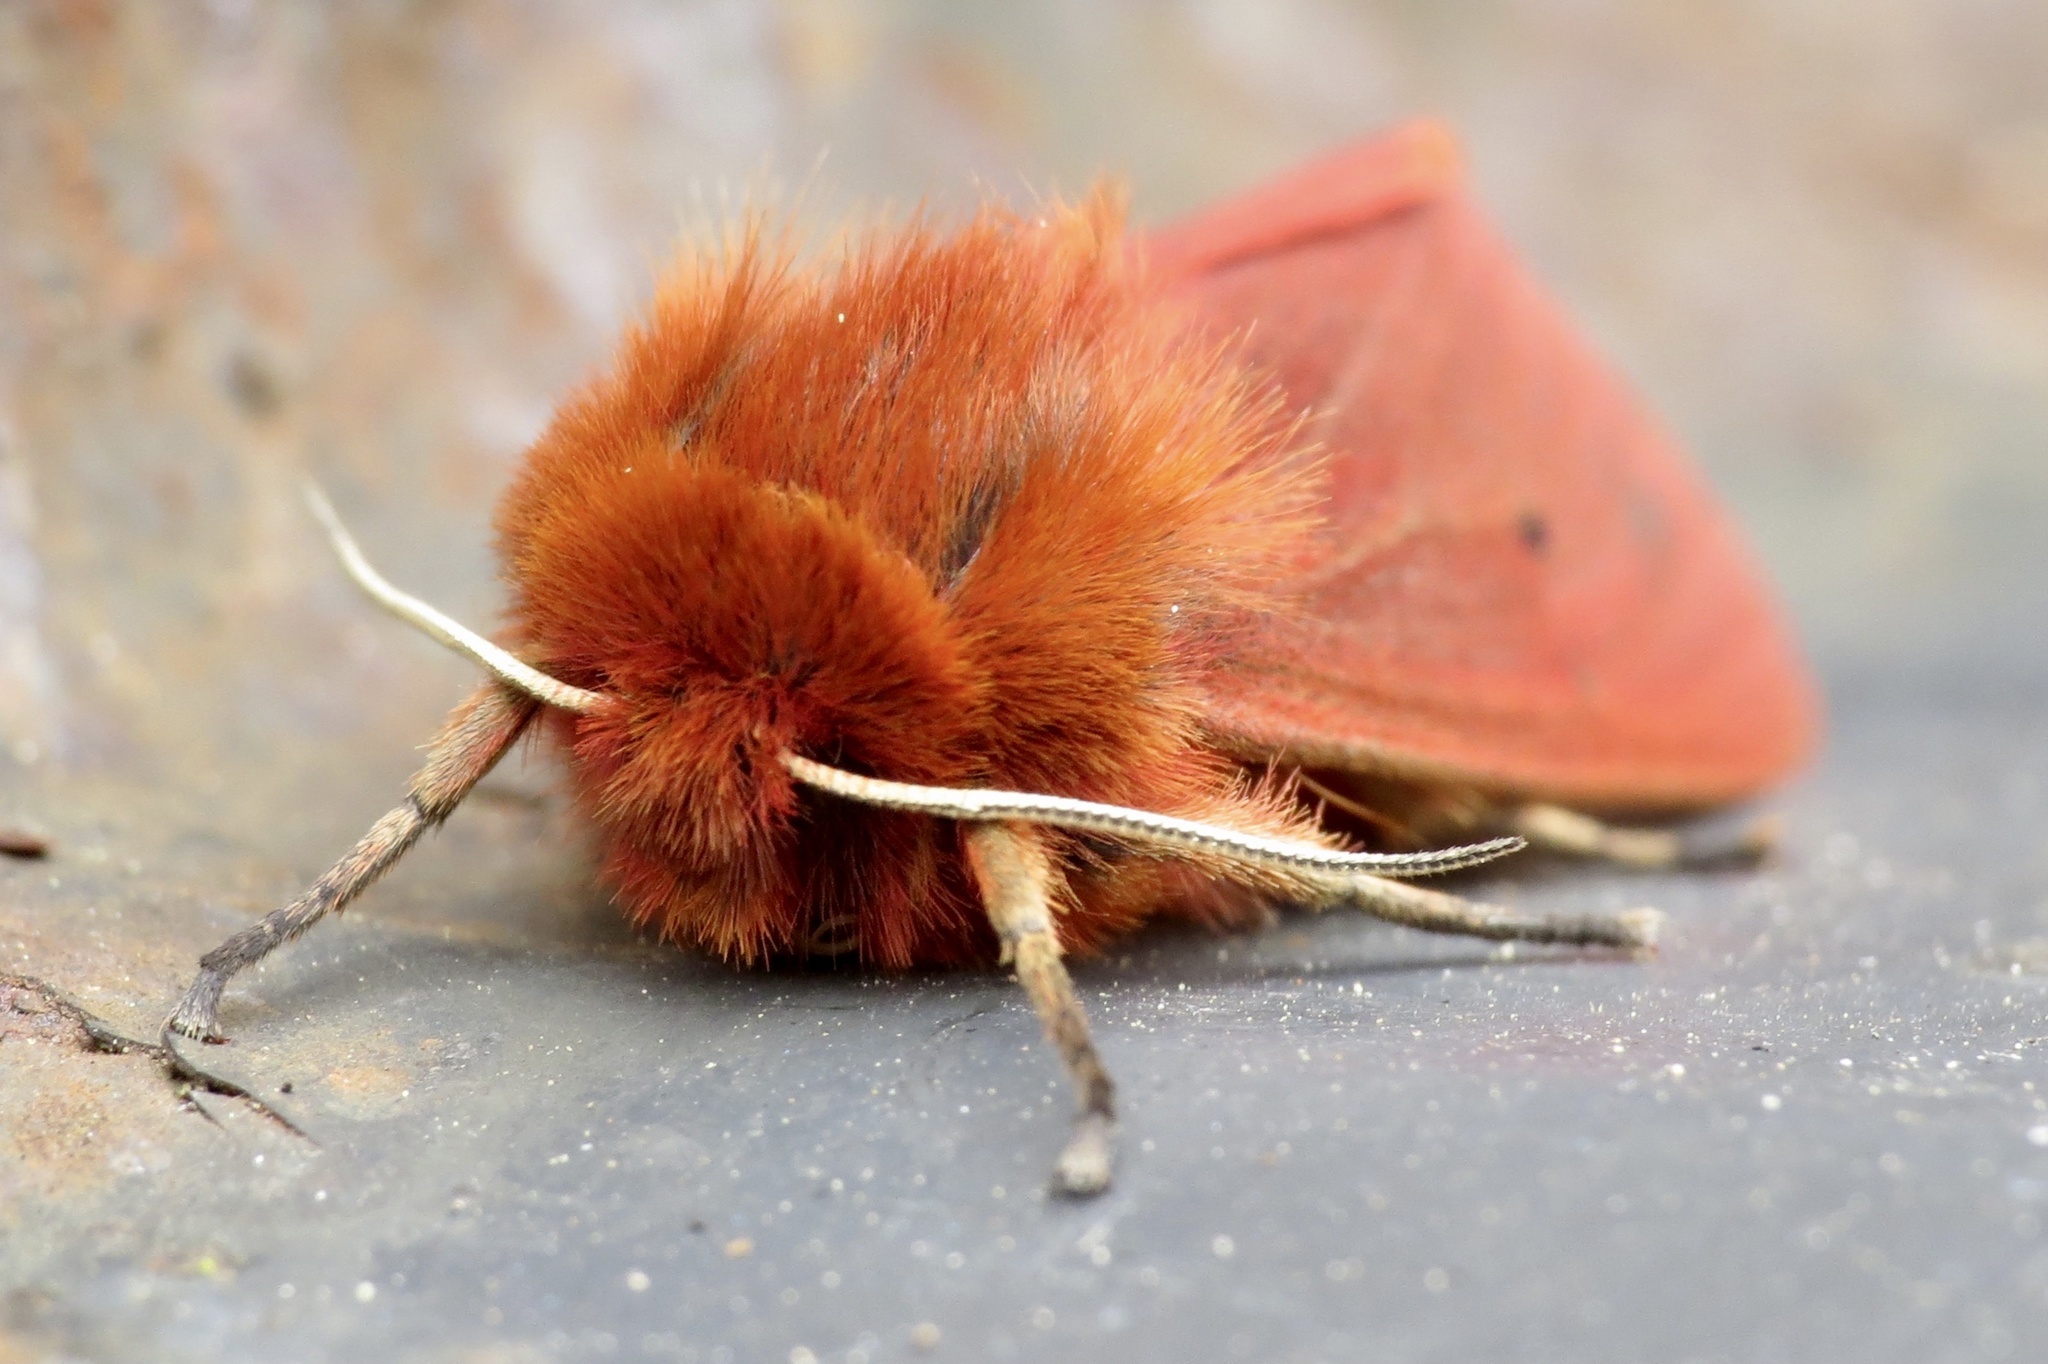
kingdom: Animalia
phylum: Arthropoda
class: Insecta
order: Lepidoptera
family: Erebidae
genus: Phragmatobia
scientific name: Phragmatobia fuliginosa
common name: Ruby tiger
